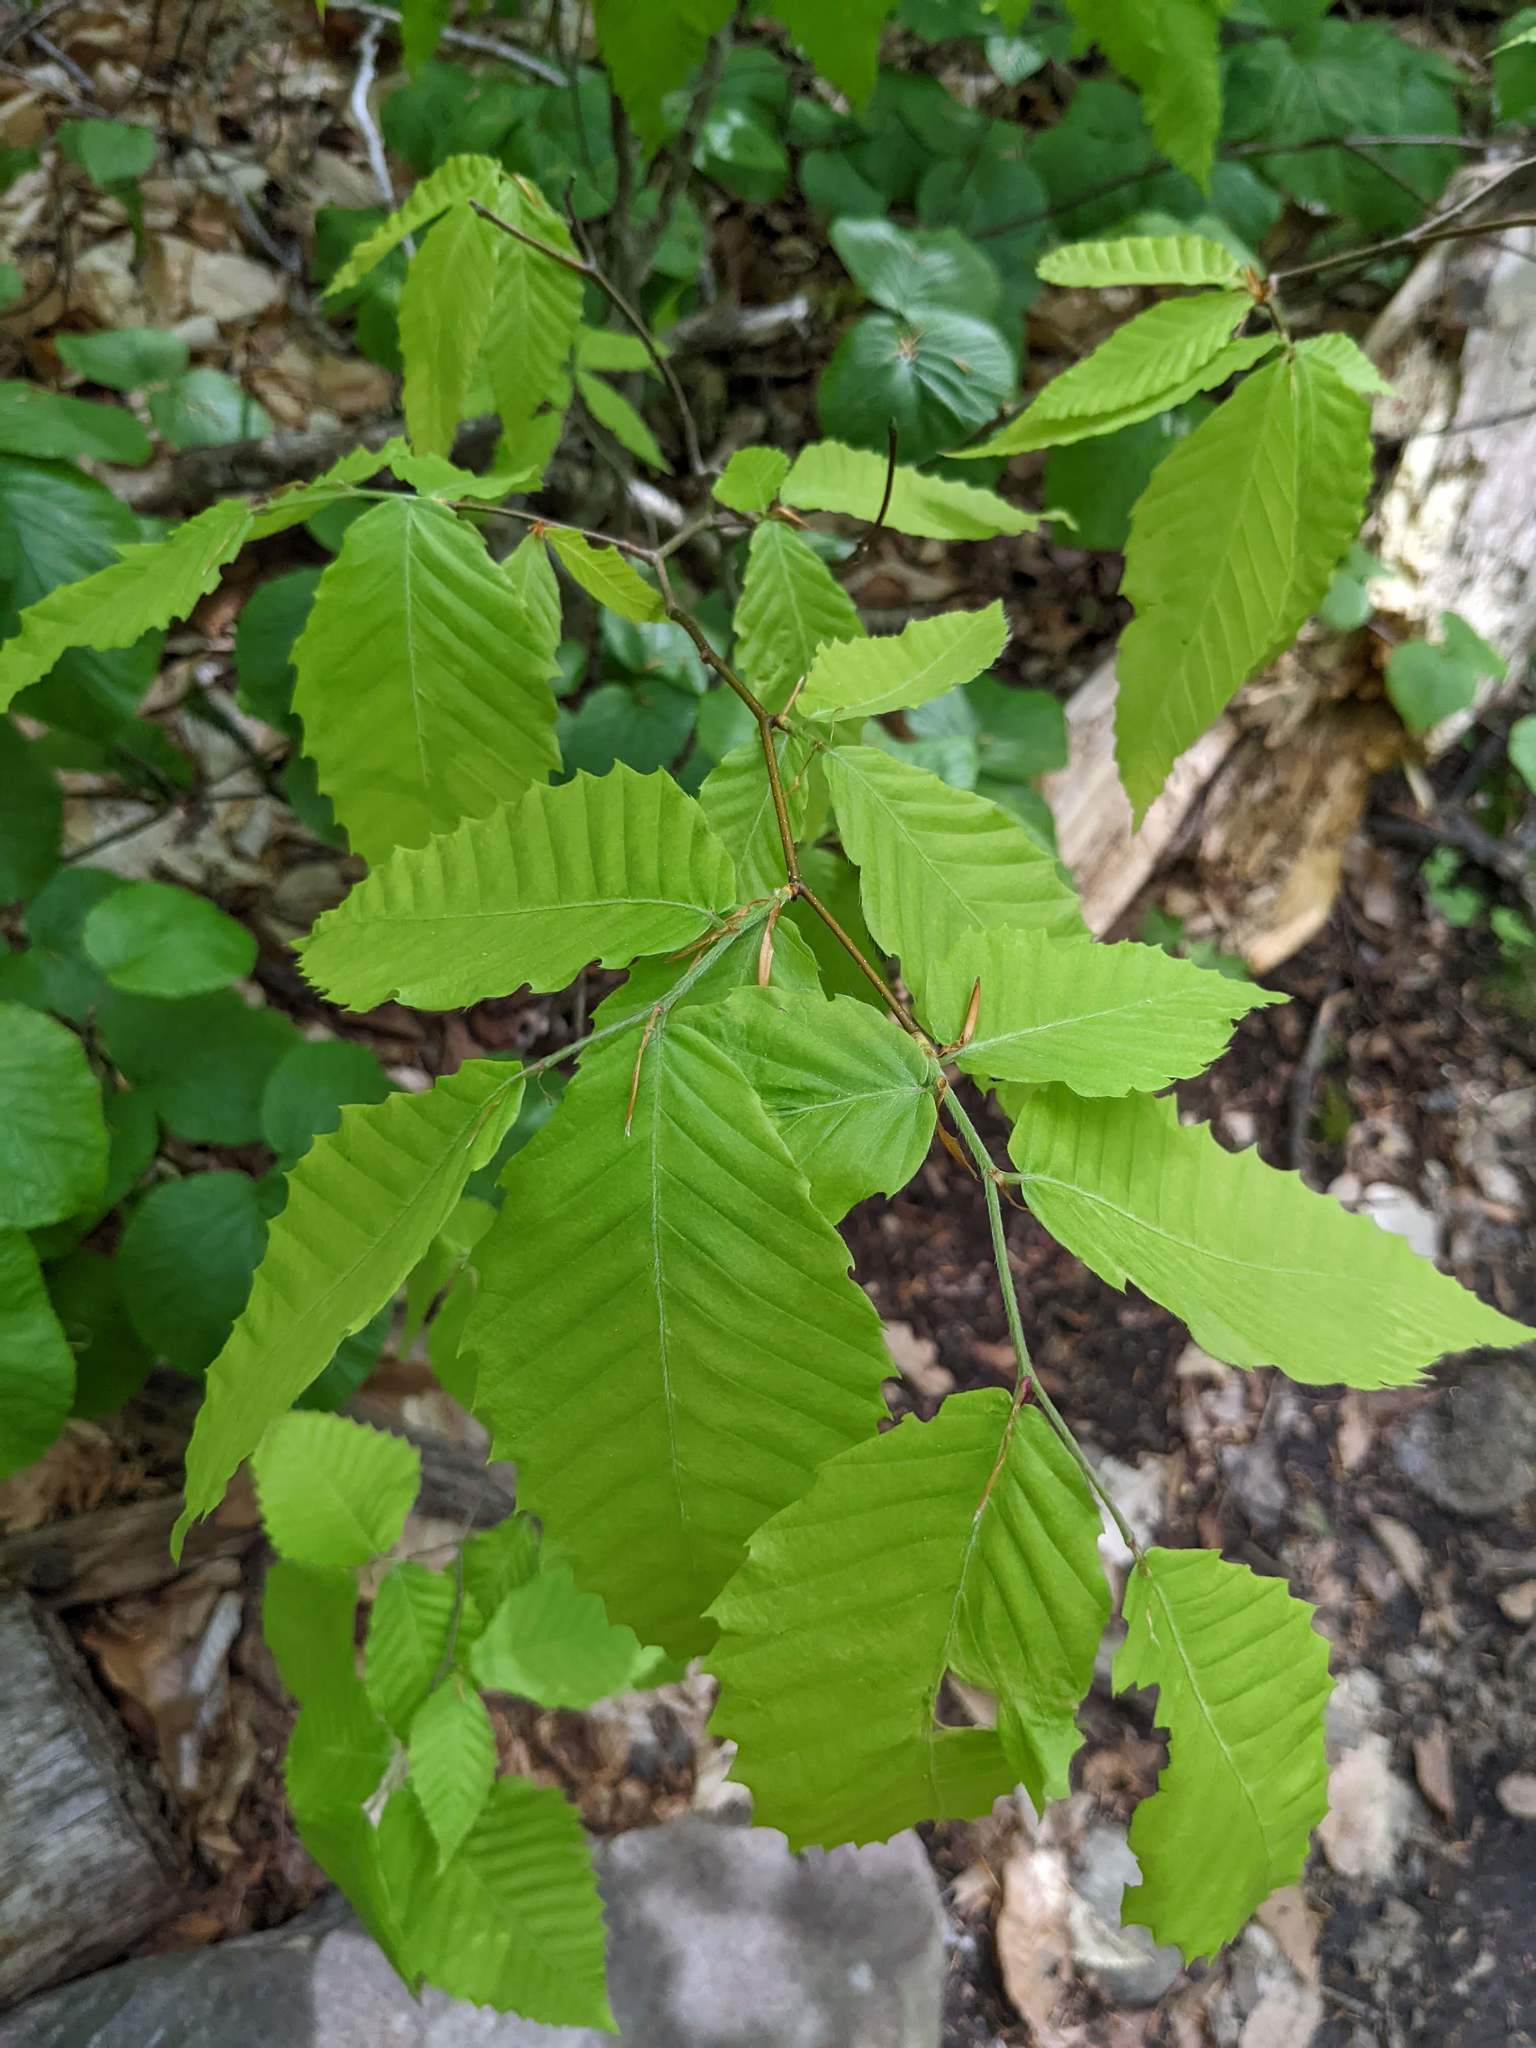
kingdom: Plantae
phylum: Tracheophyta
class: Magnoliopsida
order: Fagales
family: Fagaceae
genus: Fagus
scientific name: Fagus grandifolia
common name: American beech
